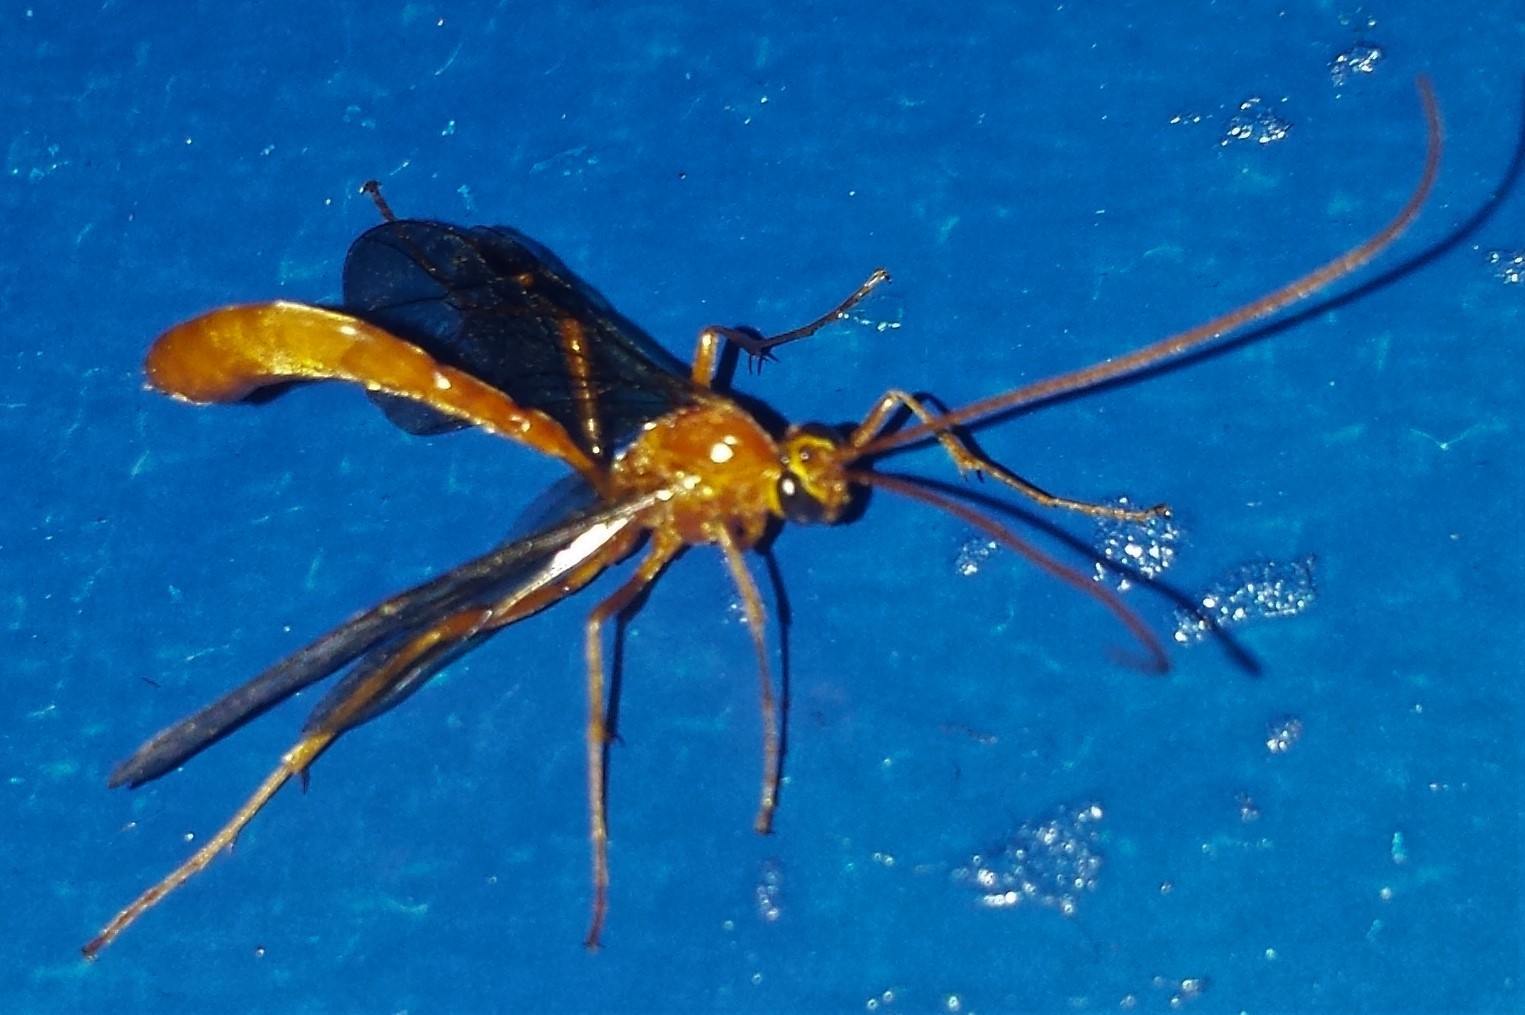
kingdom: Animalia
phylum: Arthropoda
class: Insecta
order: Hymenoptera
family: Ichneumonidae
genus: Ophion
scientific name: Ophion
